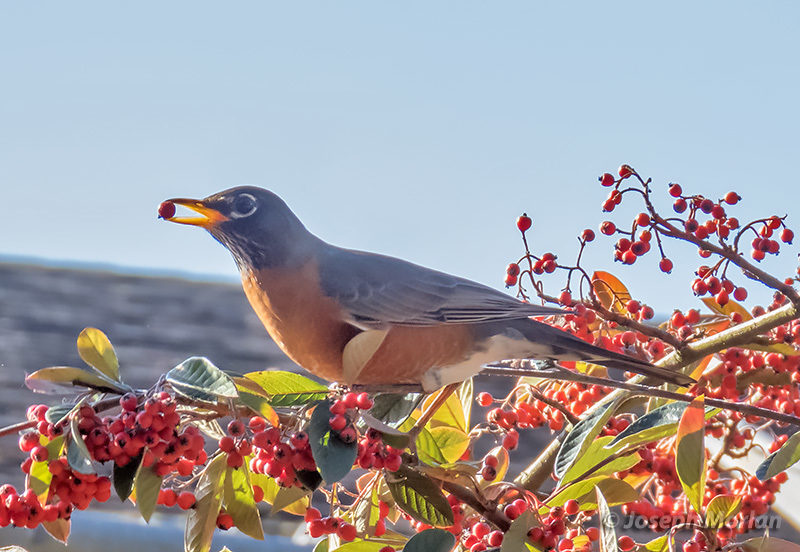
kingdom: Animalia
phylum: Chordata
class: Aves
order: Passeriformes
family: Turdidae
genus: Turdus
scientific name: Turdus migratorius
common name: American robin
